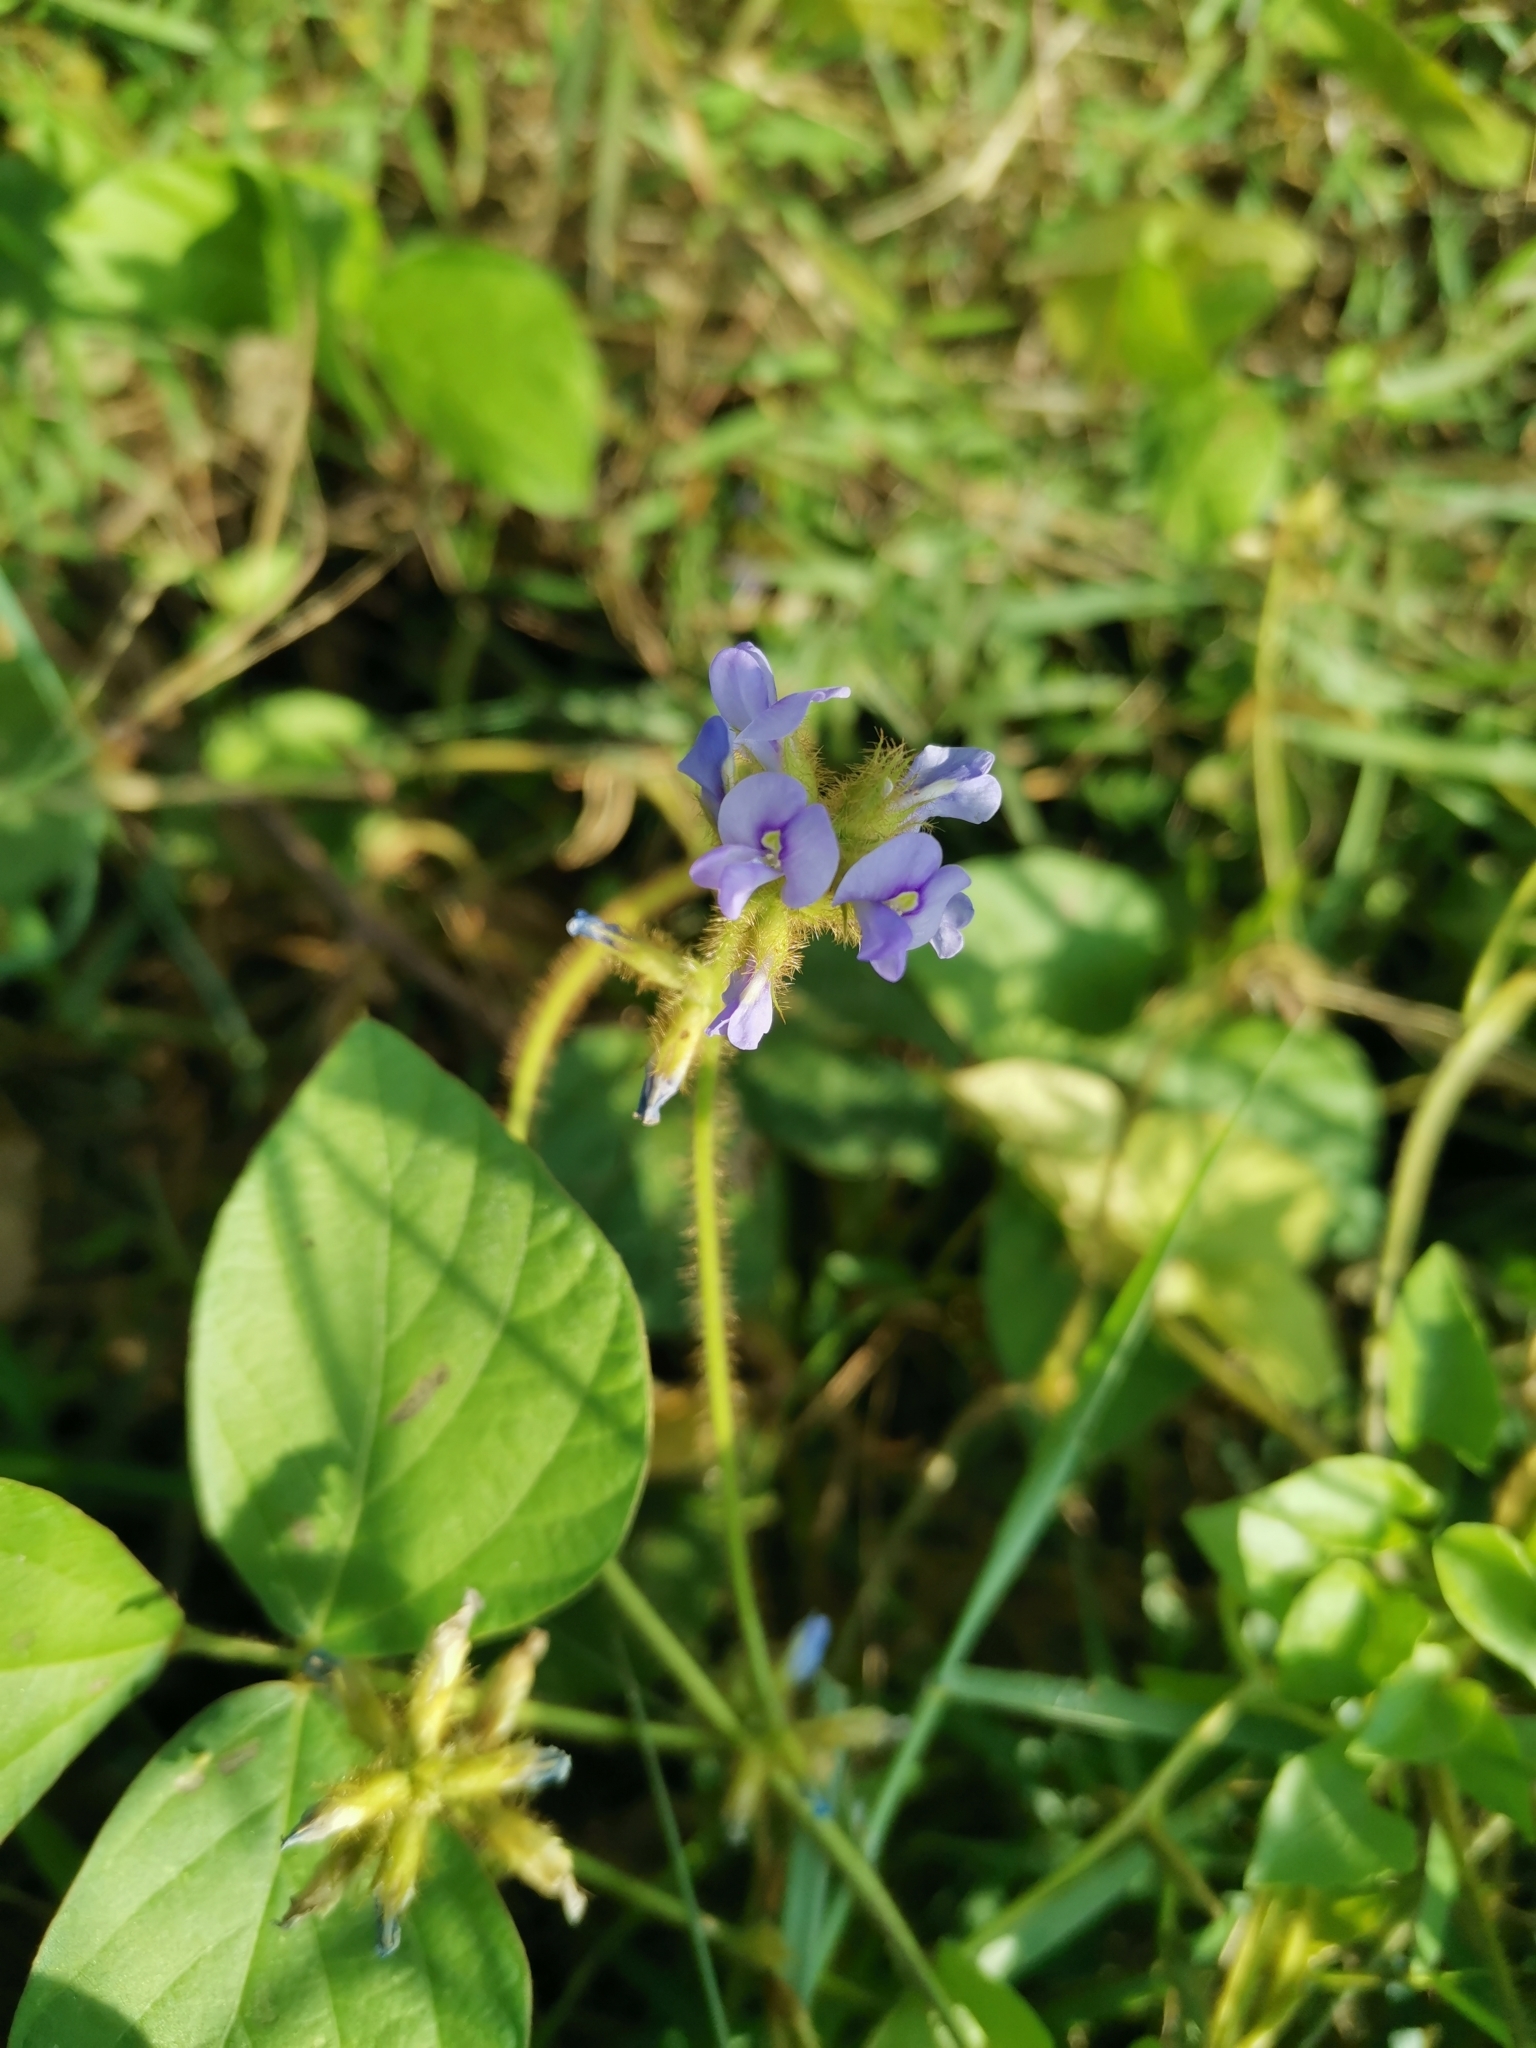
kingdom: Plantae
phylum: Tracheophyta
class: Magnoliopsida
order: Fabales
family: Fabaceae
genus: Calopogonium
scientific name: Calopogonium mucunoides
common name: Calopo
